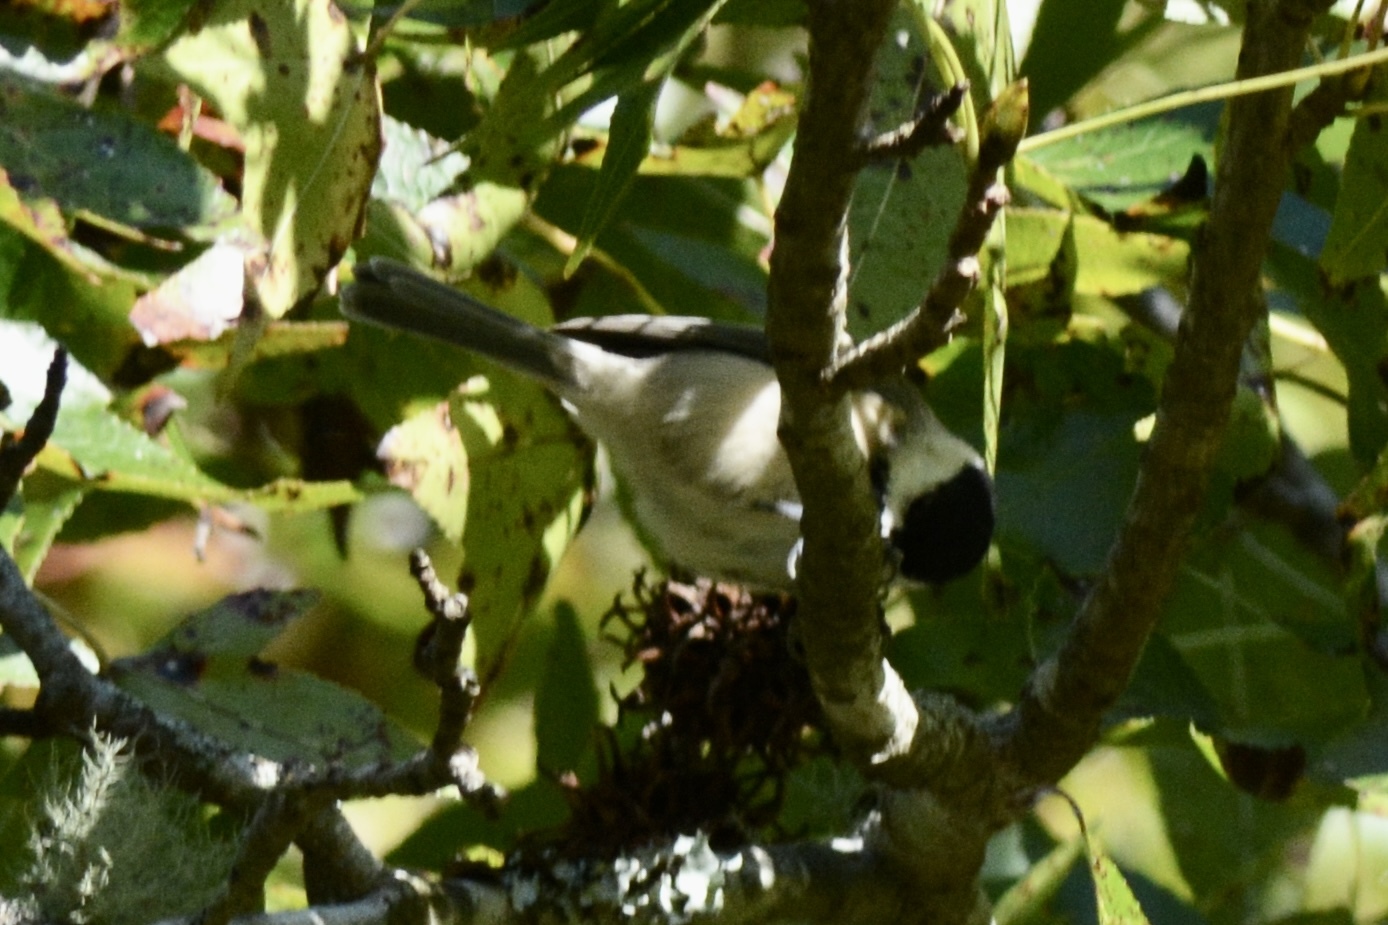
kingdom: Animalia
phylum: Chordata
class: Aves
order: Passeriformes
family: Paridae
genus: Poecile
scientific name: Poecile carolinensis
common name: Carolina chickadee
